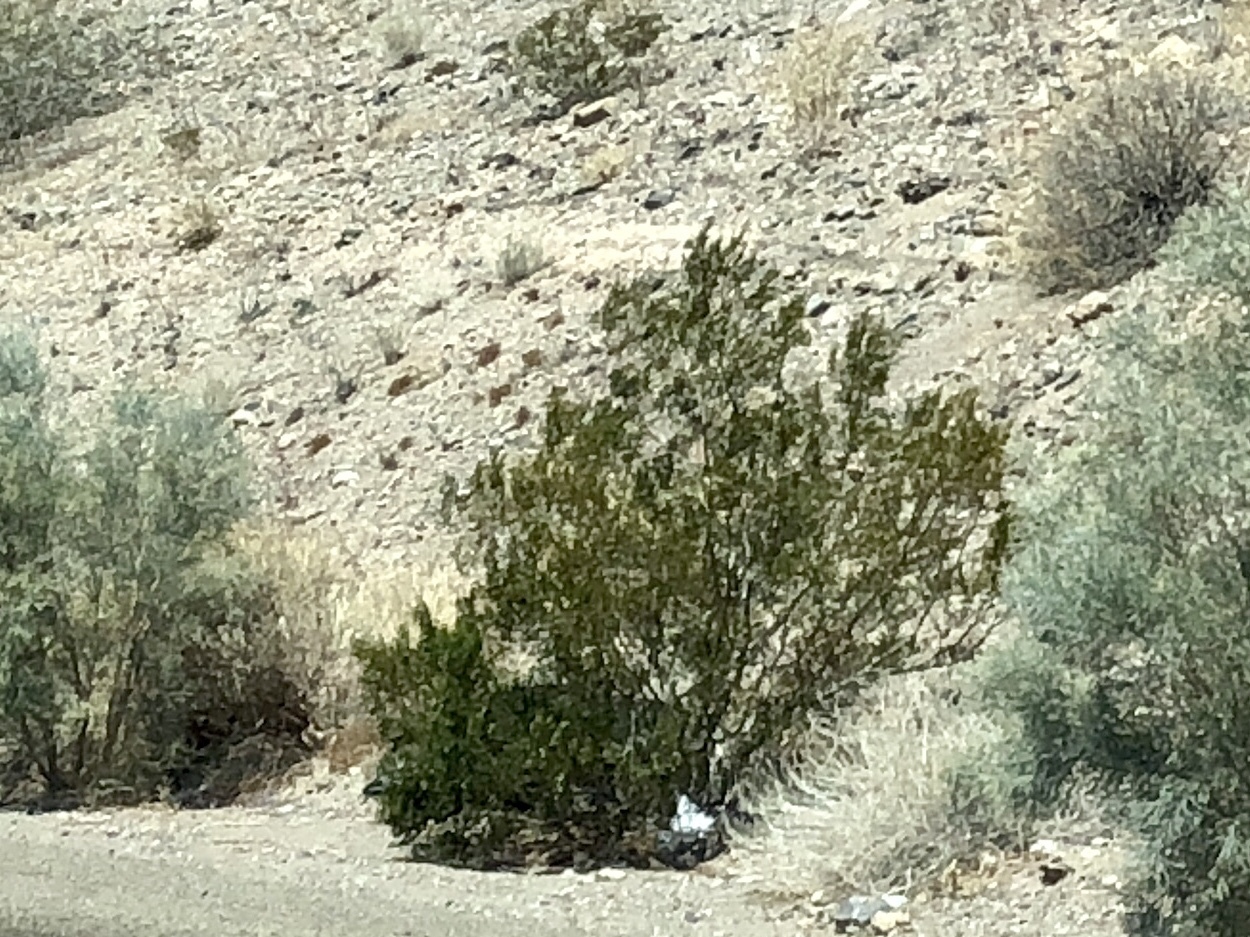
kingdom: Plantae
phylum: Tracheophyta
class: Magnoliopsida
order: Zygophyllales
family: Zygophyllaceae
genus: Larrea
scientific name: Larrea tridentata
